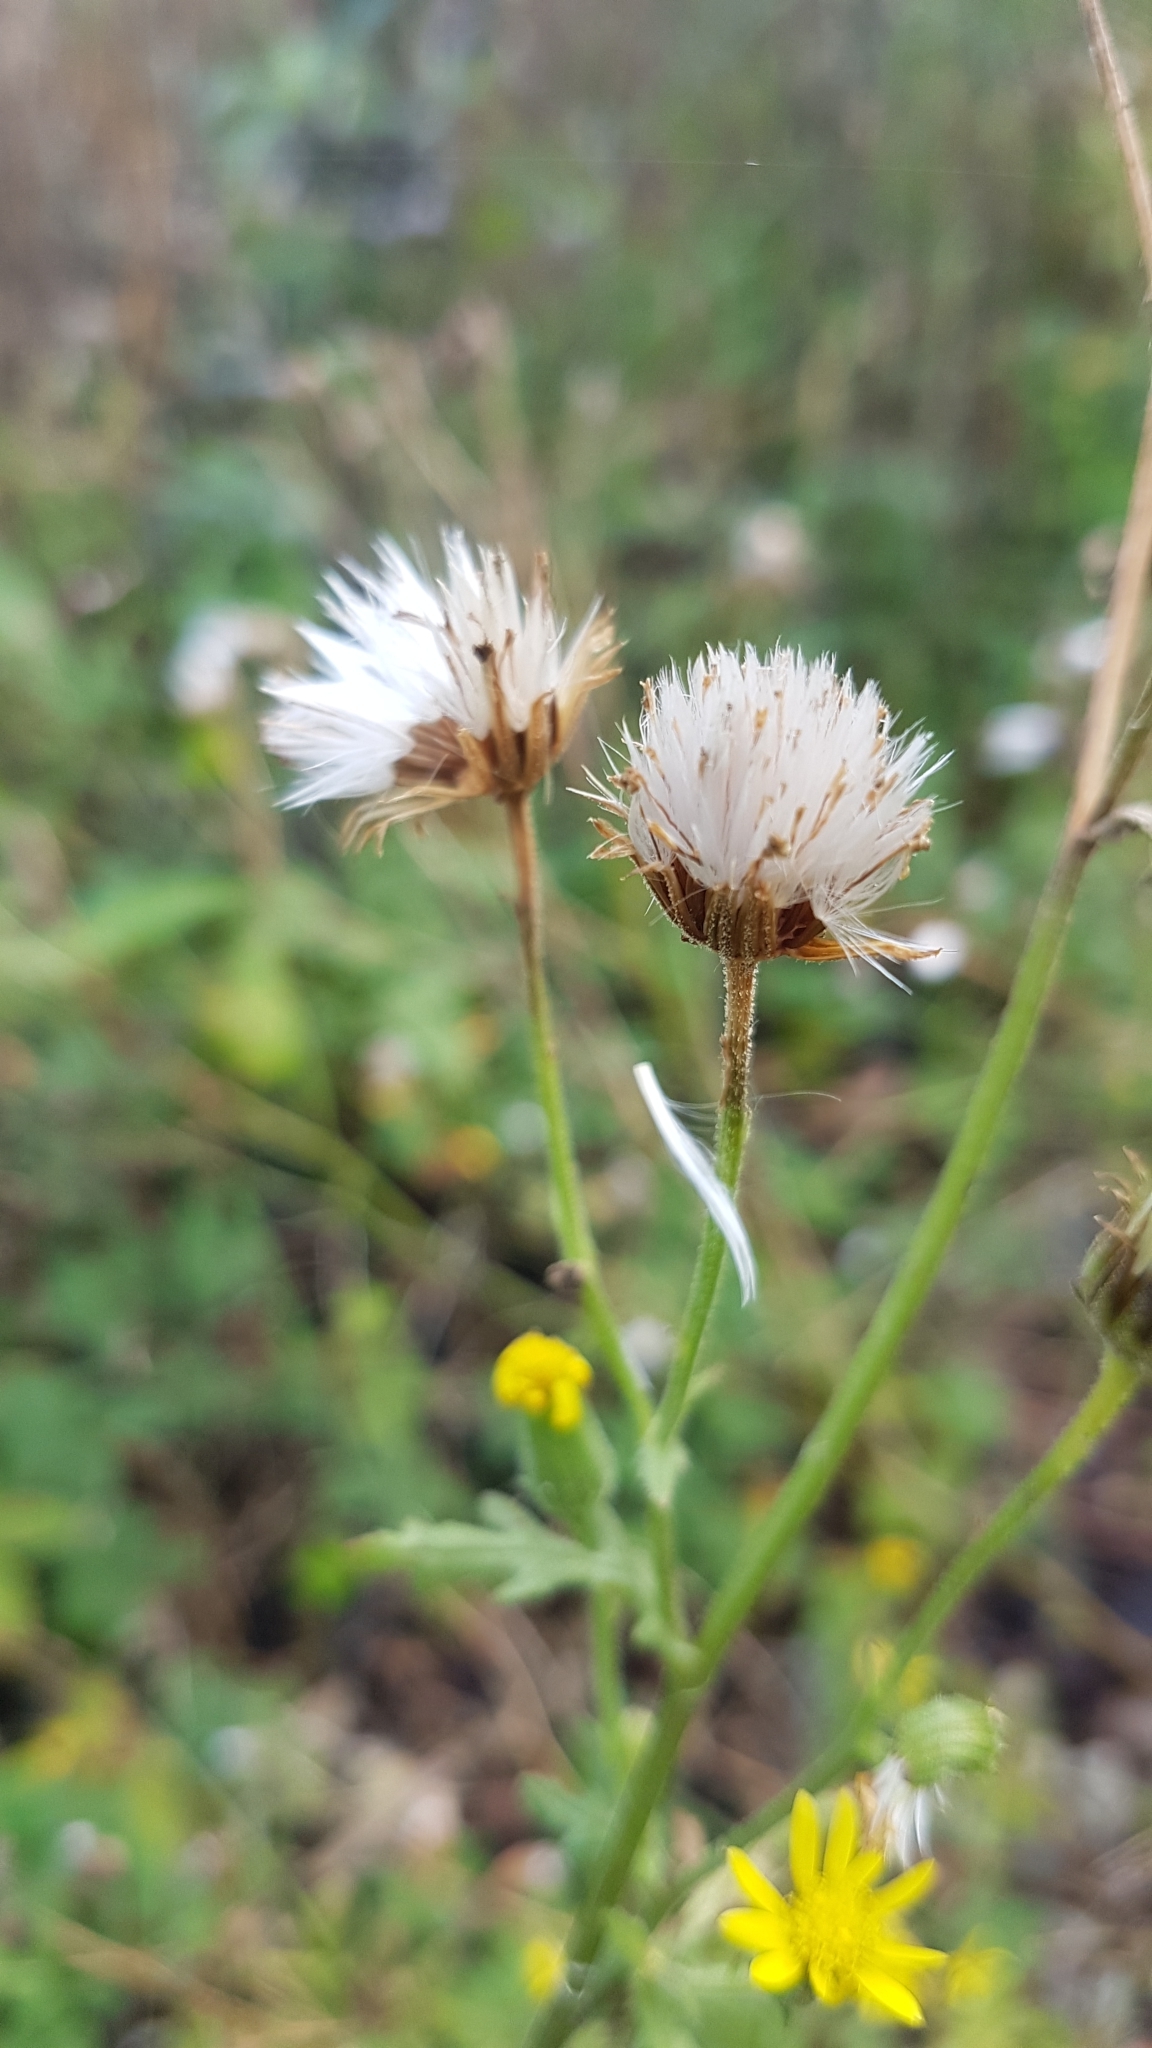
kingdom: Plantae
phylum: Tracheophyta
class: Magnoliopsida
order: Asterales
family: Asteraceae
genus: Senecio
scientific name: Senecio viscosus
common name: Sticky groundsel
